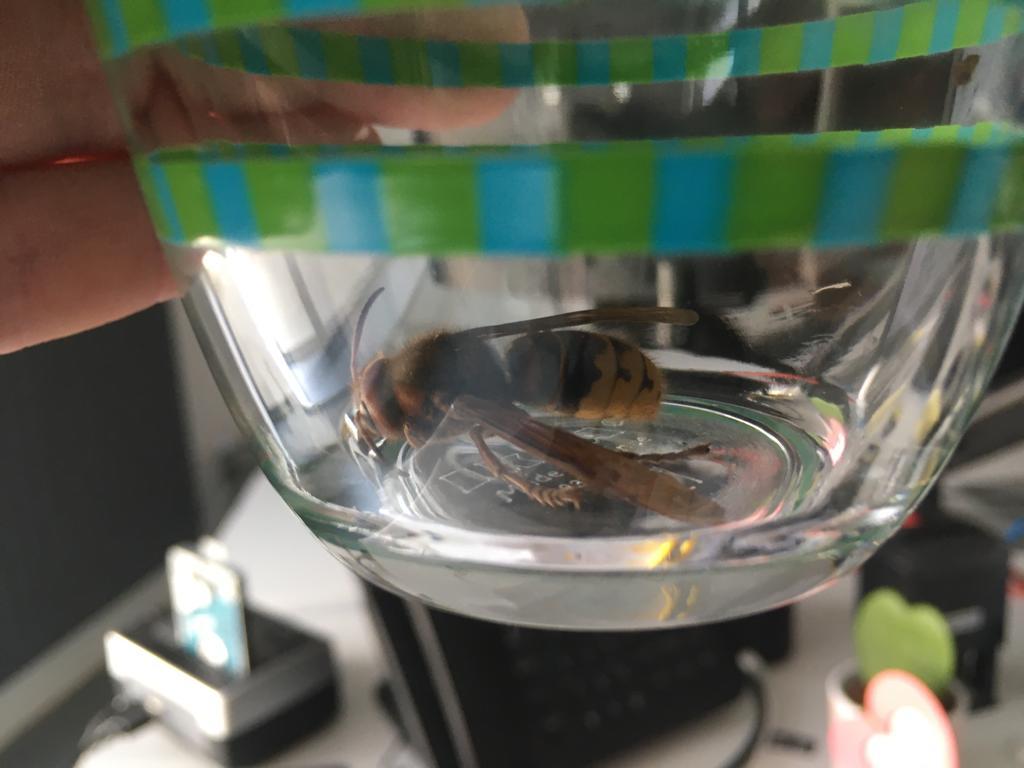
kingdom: Animalia
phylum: Arthropoda
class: Insecta
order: Hymenoptera
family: Vespidae
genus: Vespa
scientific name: Vespa crabro
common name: Hornet
